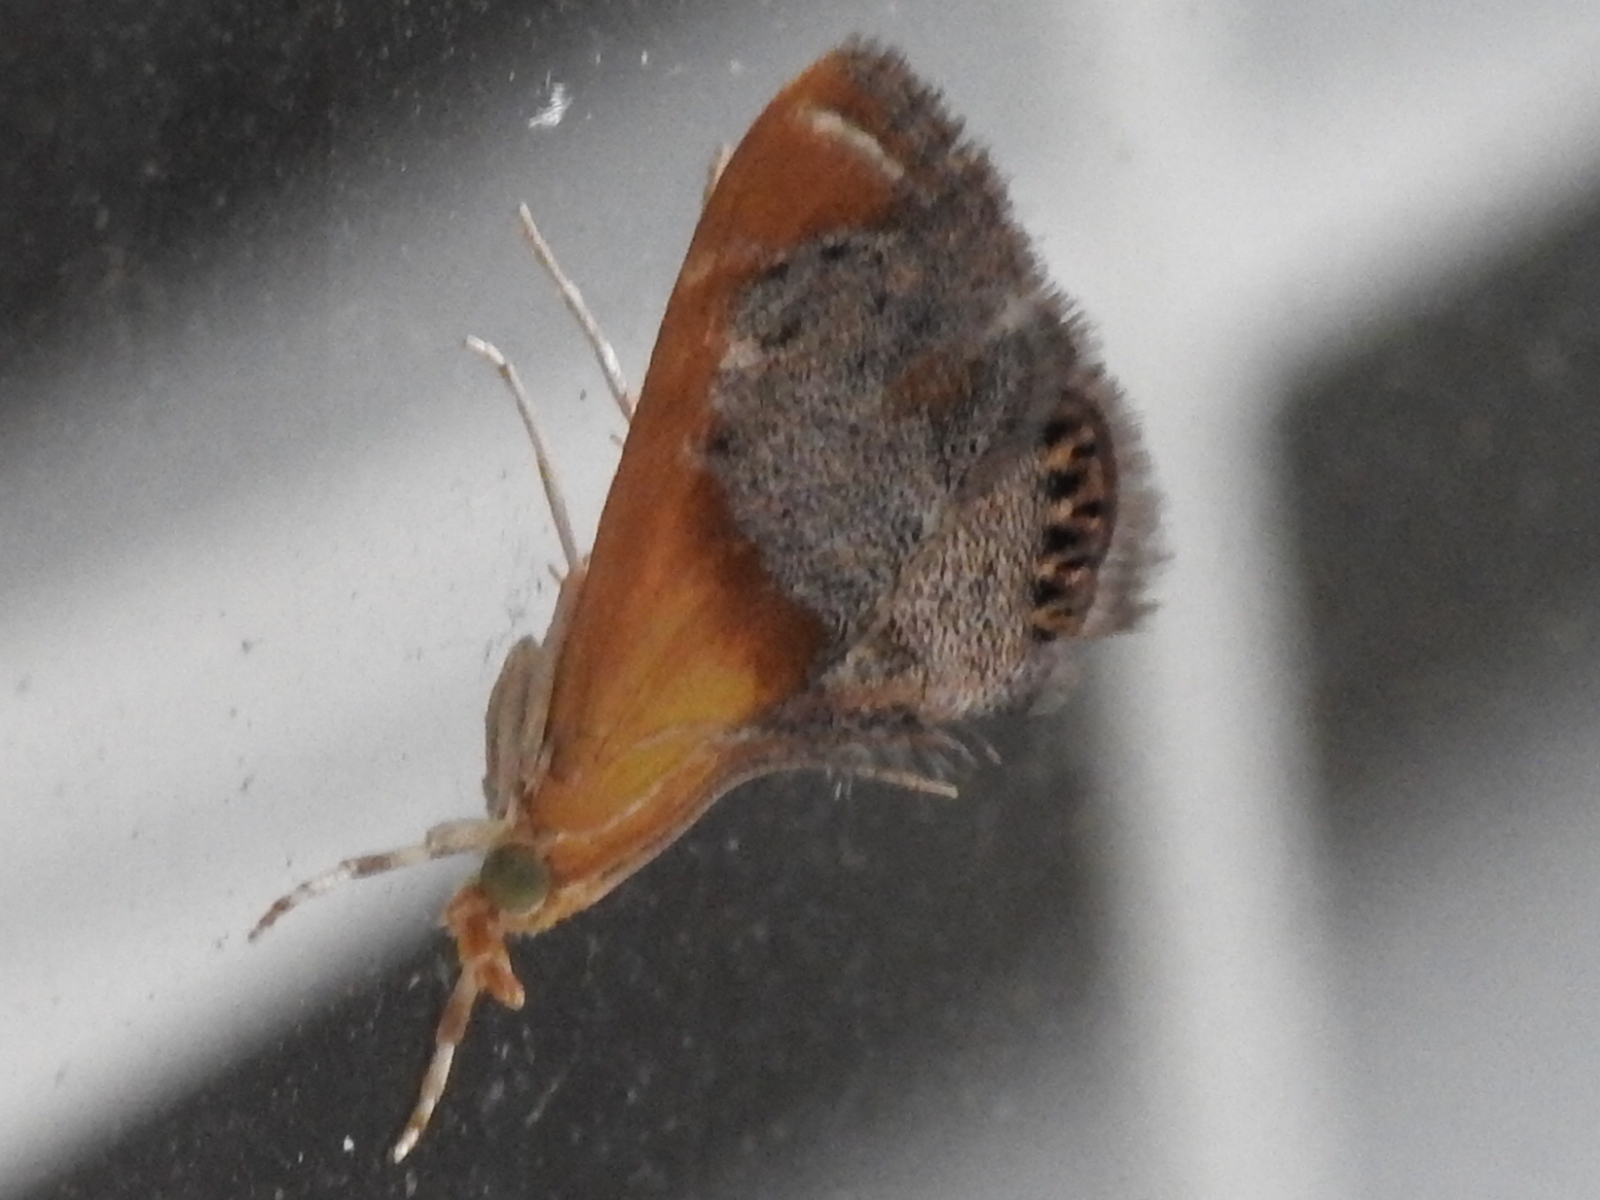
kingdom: Animalia
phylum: Arthropoda
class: Insecta
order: Lepidoptera
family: Crambidae
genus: Chalcoela
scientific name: Chalcoela iphitalis
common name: Sooty-winged chalcoela moth
